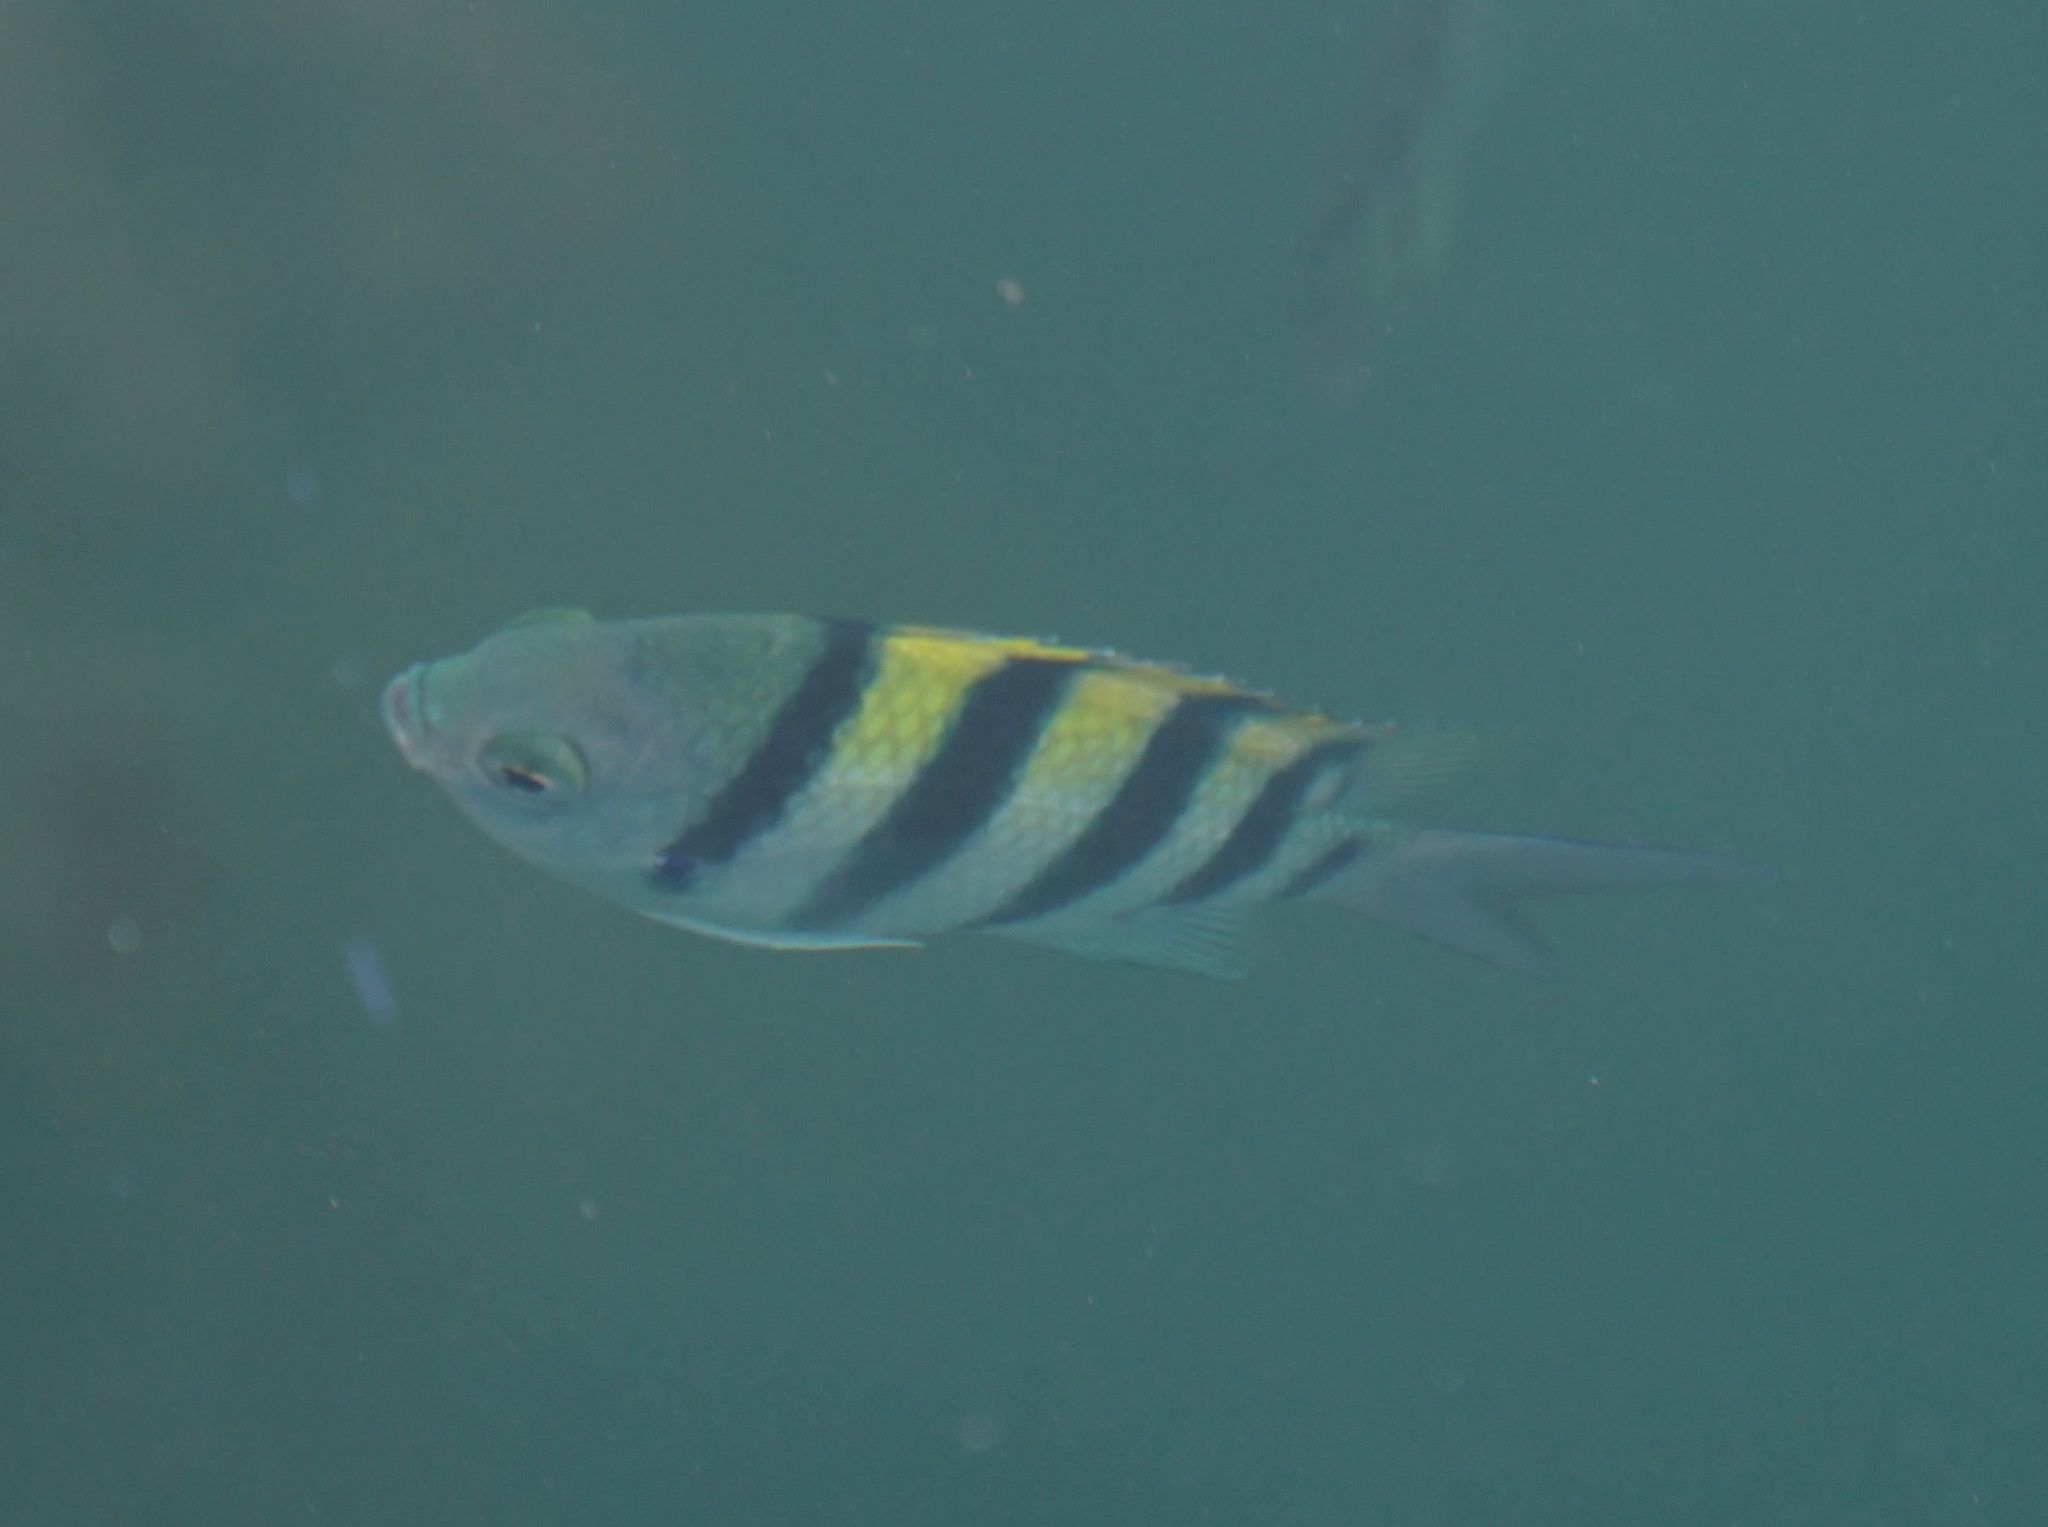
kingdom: Animalia
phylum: Chordata
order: Perciformes
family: Pomacentridae
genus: Abudefduf
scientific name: Abudefduf vaigiensis
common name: Indo-pacific sergeant
